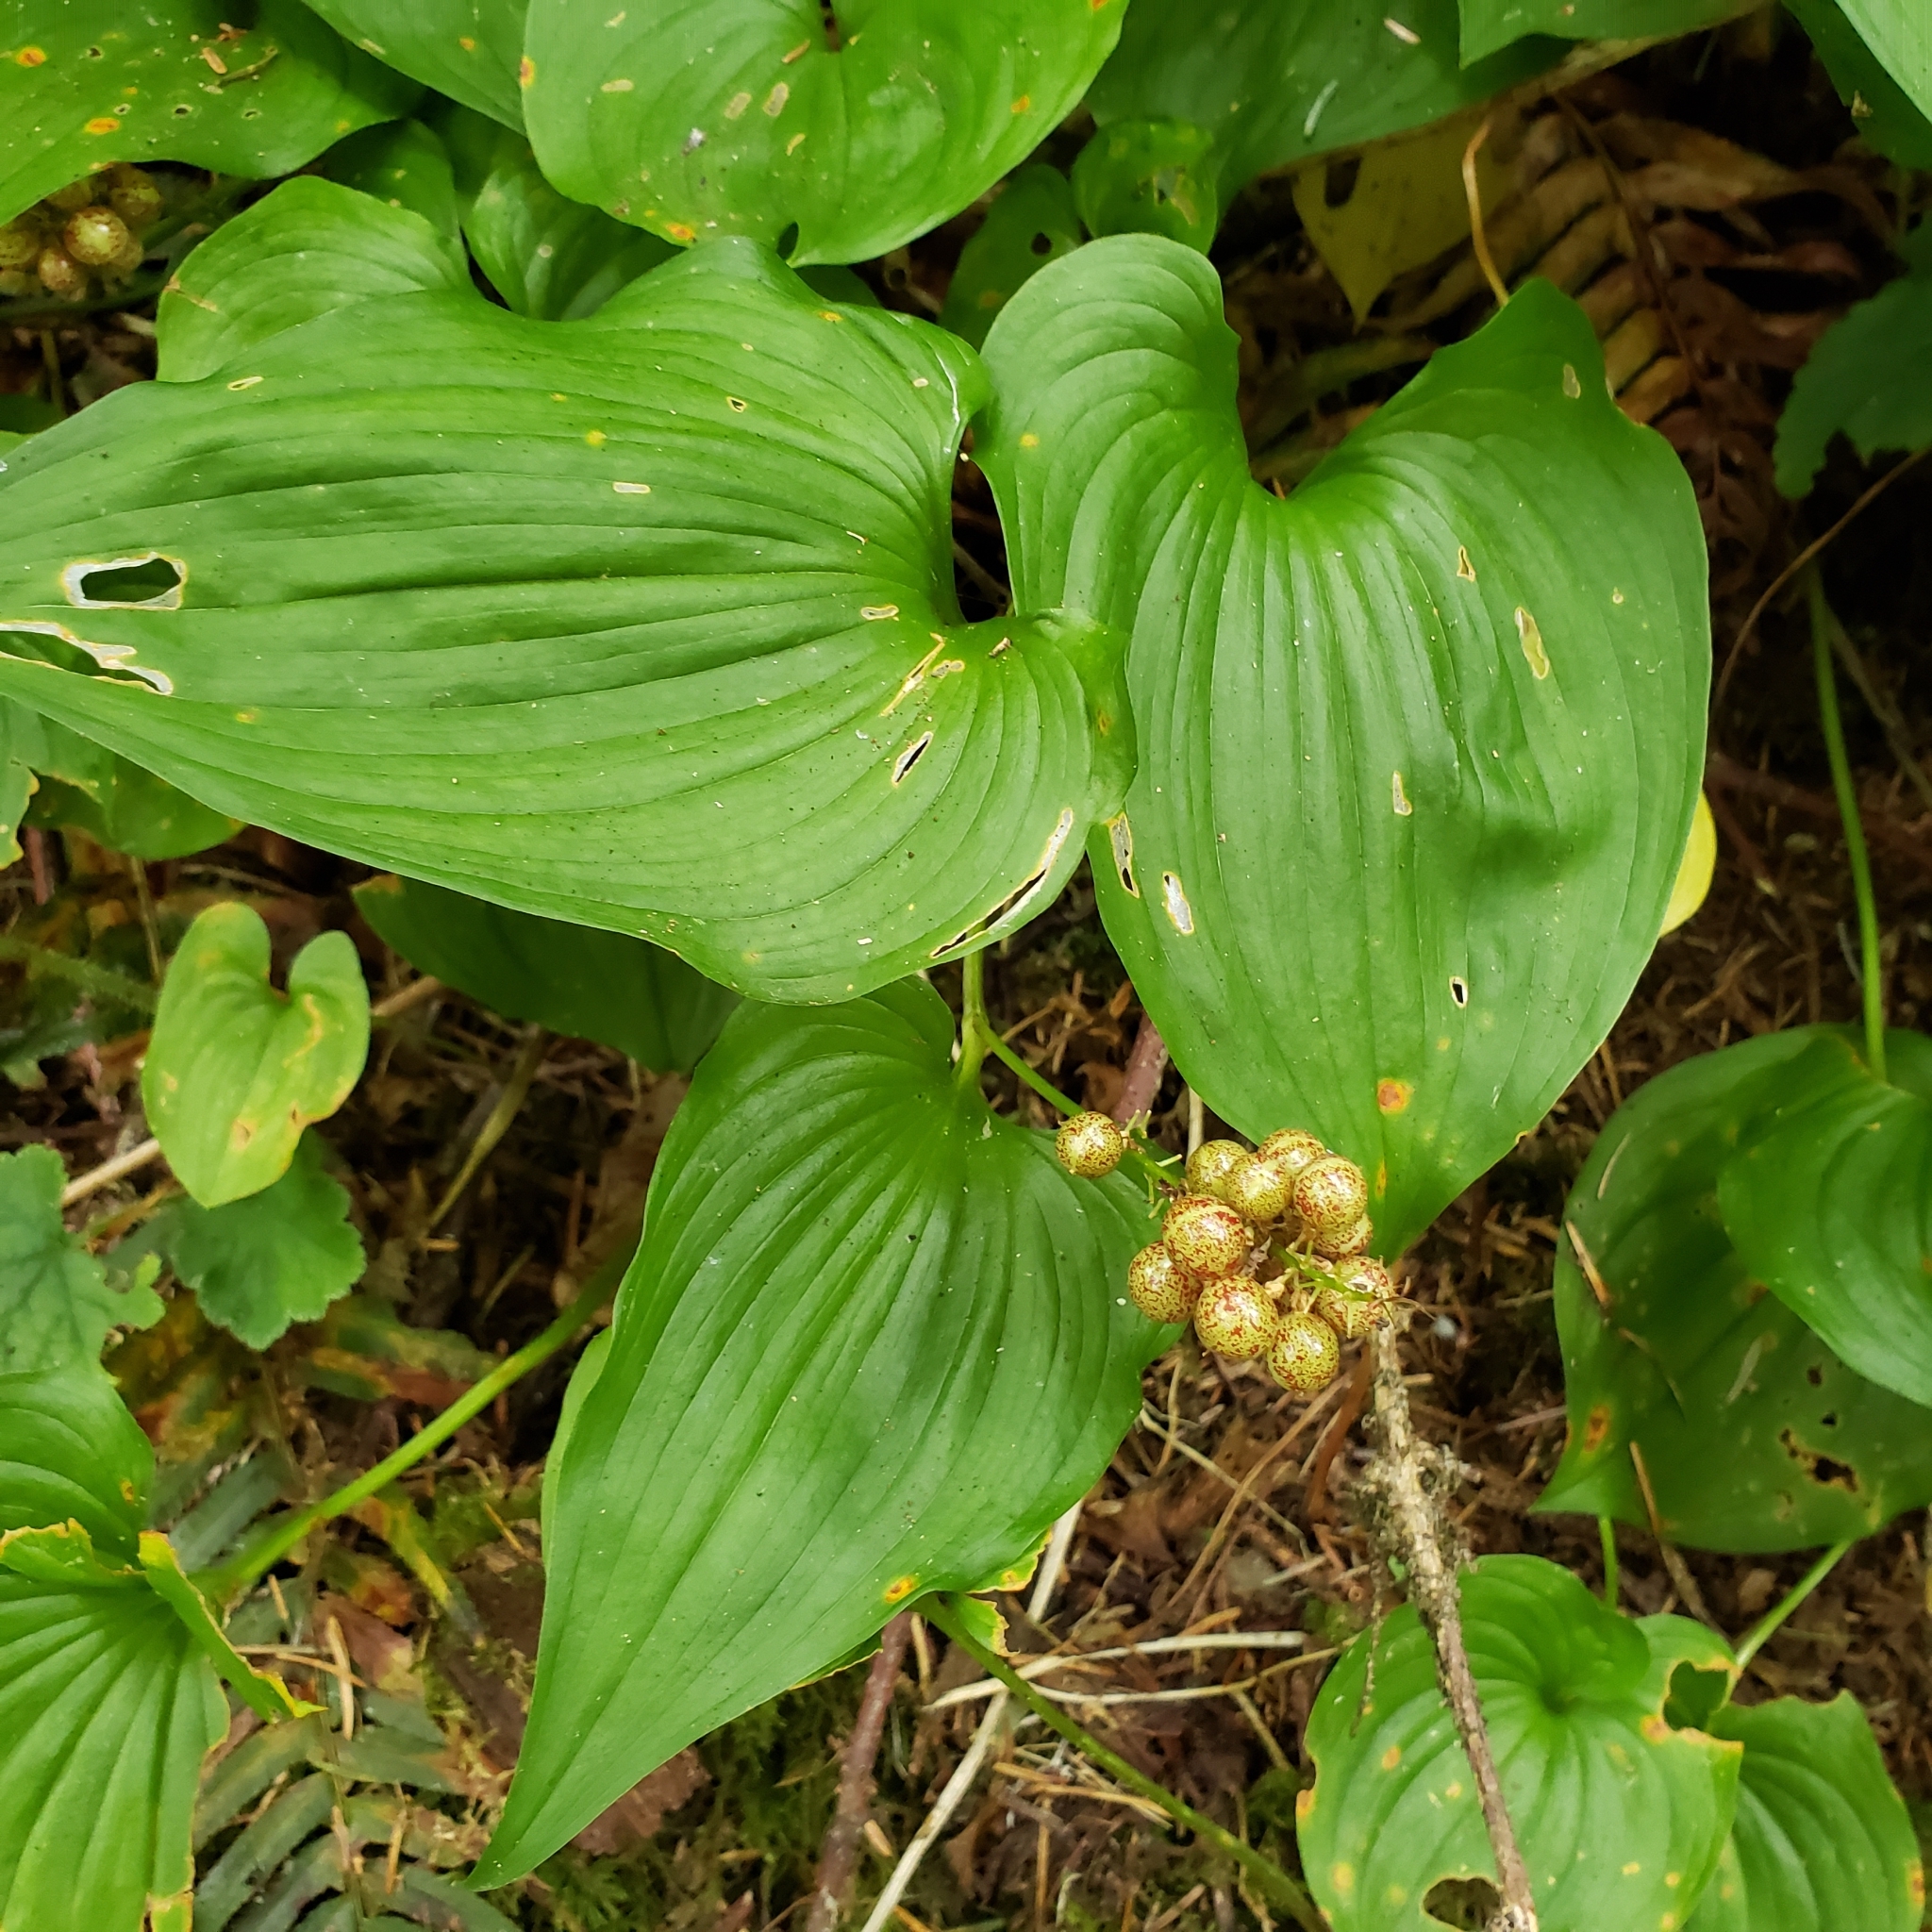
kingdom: Plantae
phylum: Tracheophyta
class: Liliopsida
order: Asparagales
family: Asparagaceae
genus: Maianthemum
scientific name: Maianthemum dilatatum
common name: False lily-of-the-valley
